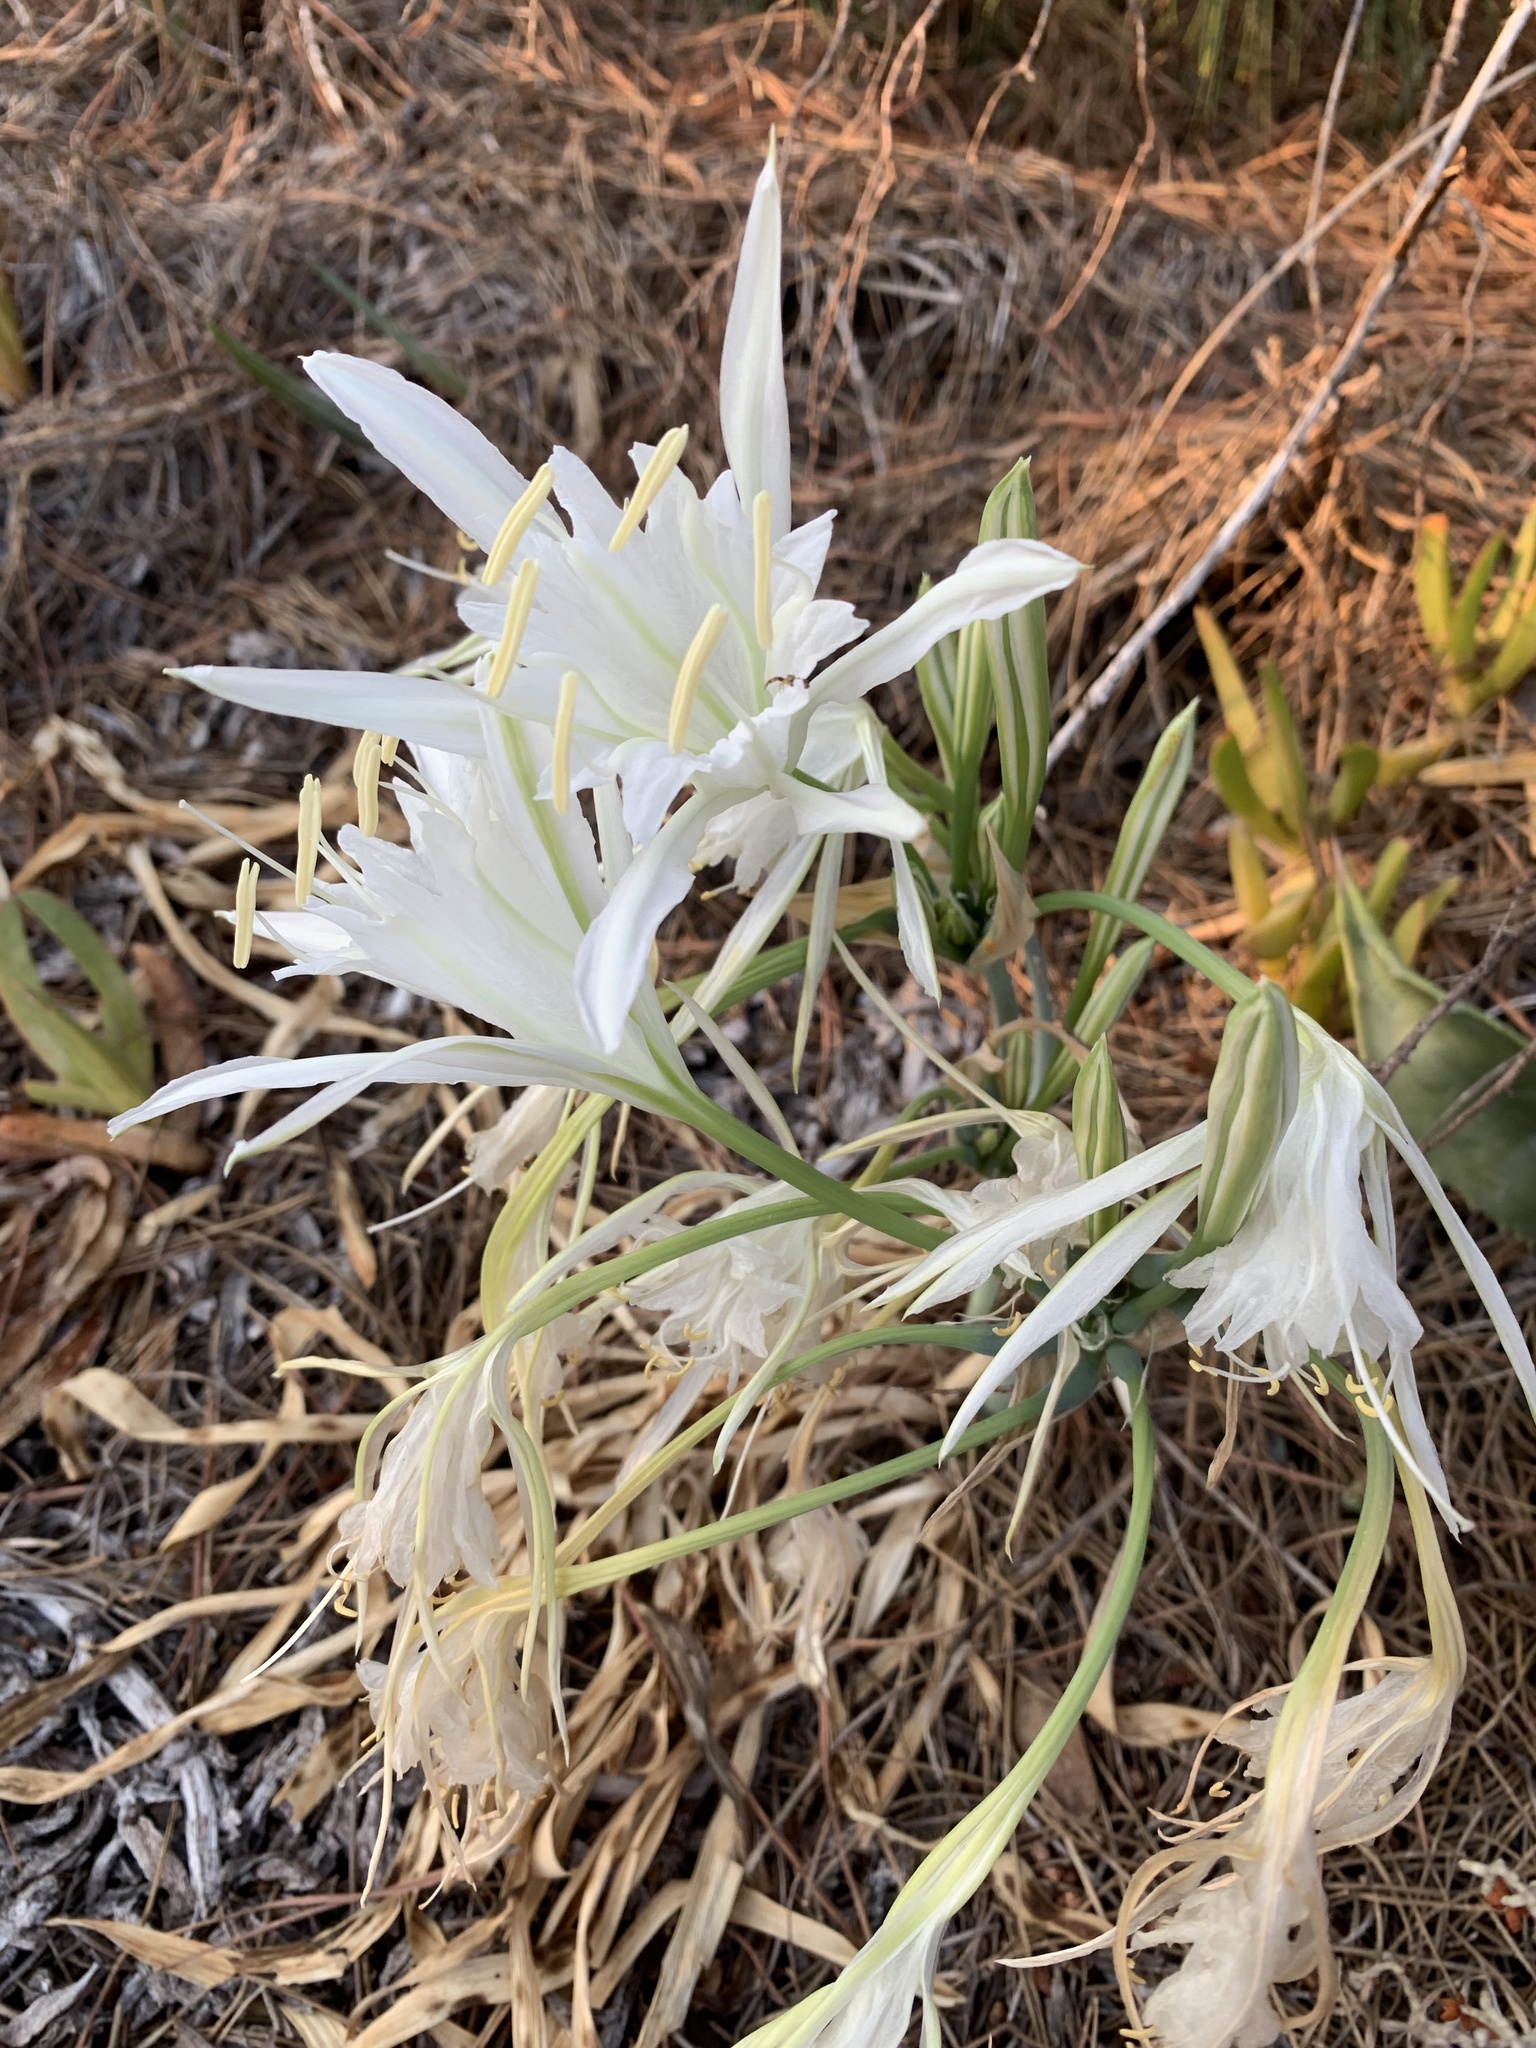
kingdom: Plantae
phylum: Tracheophyta
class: Liliopsida
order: Asparagales
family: Amaryllidaceae
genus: Pancratium
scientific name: Pancratium maritimum
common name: Sea-daffodil
